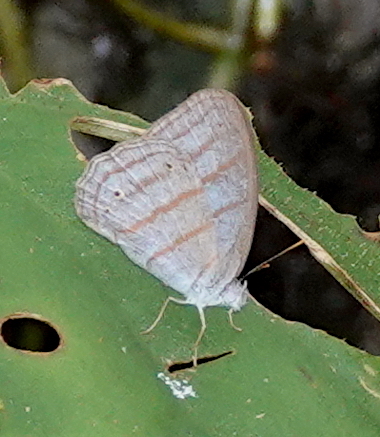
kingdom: Animalia
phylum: Arthropoda
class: Insecta
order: Lepidoptera
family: Nymphalidae
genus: Cepheuptychia
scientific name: Cepheuptychia glaucina
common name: Dirty-blue satyr
